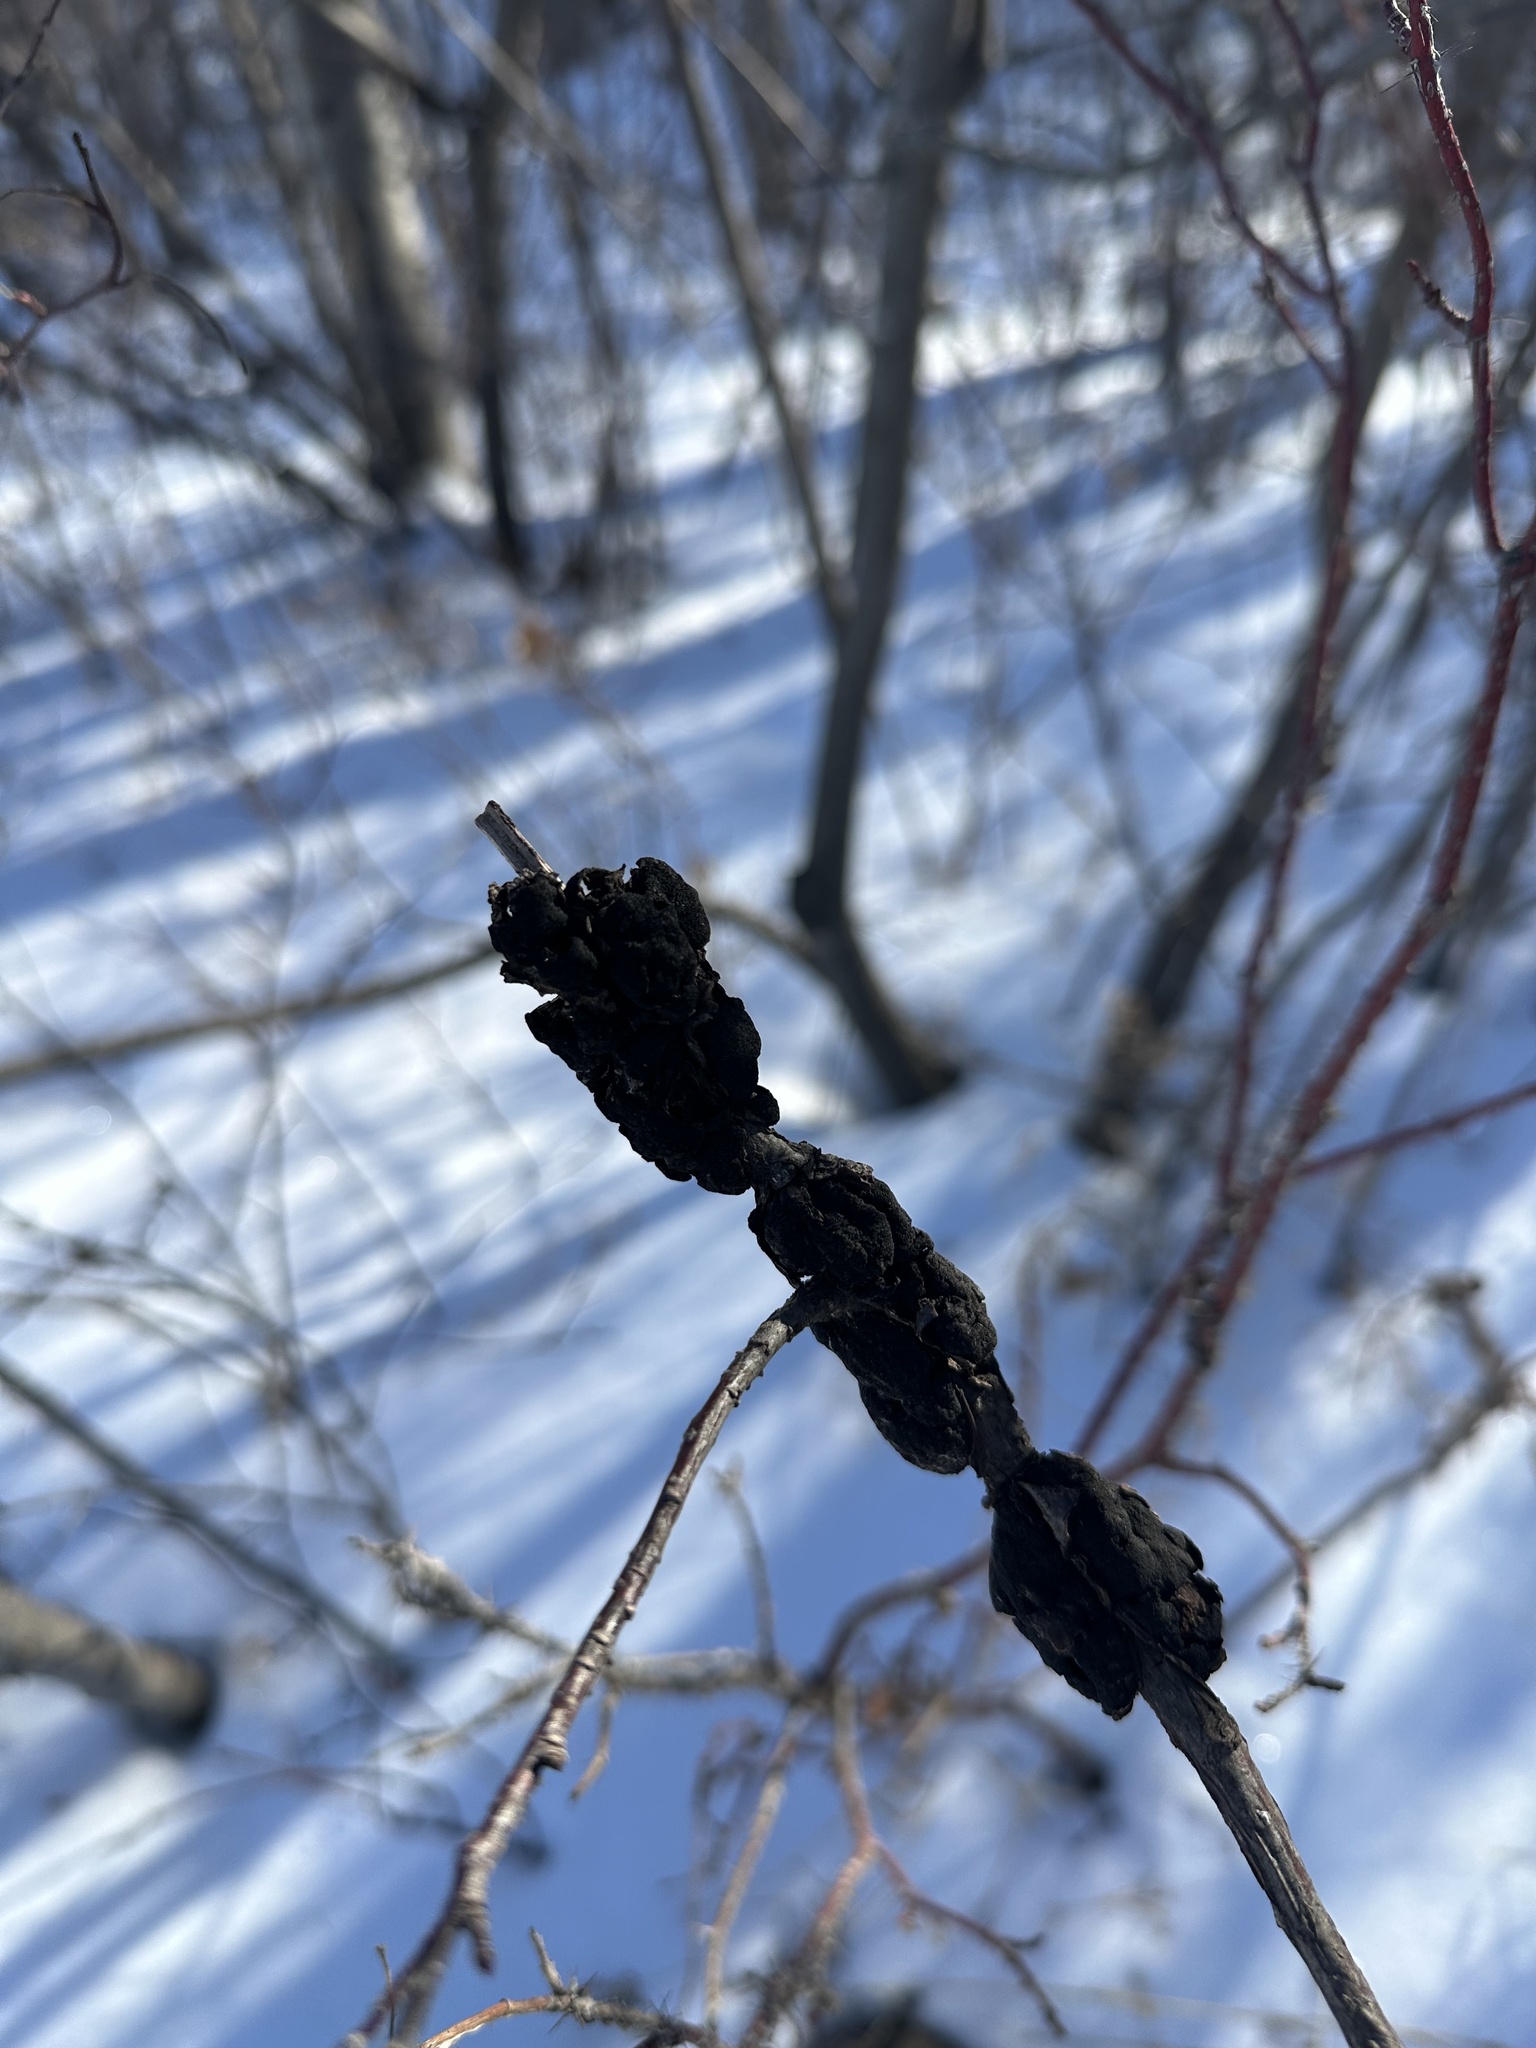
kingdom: Fungi
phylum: Ascomycota
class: Dothideomycetes
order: Venturiales
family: Venturiaceae
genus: Apiosporina
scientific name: Apiosporina morbosa
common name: Black knot
